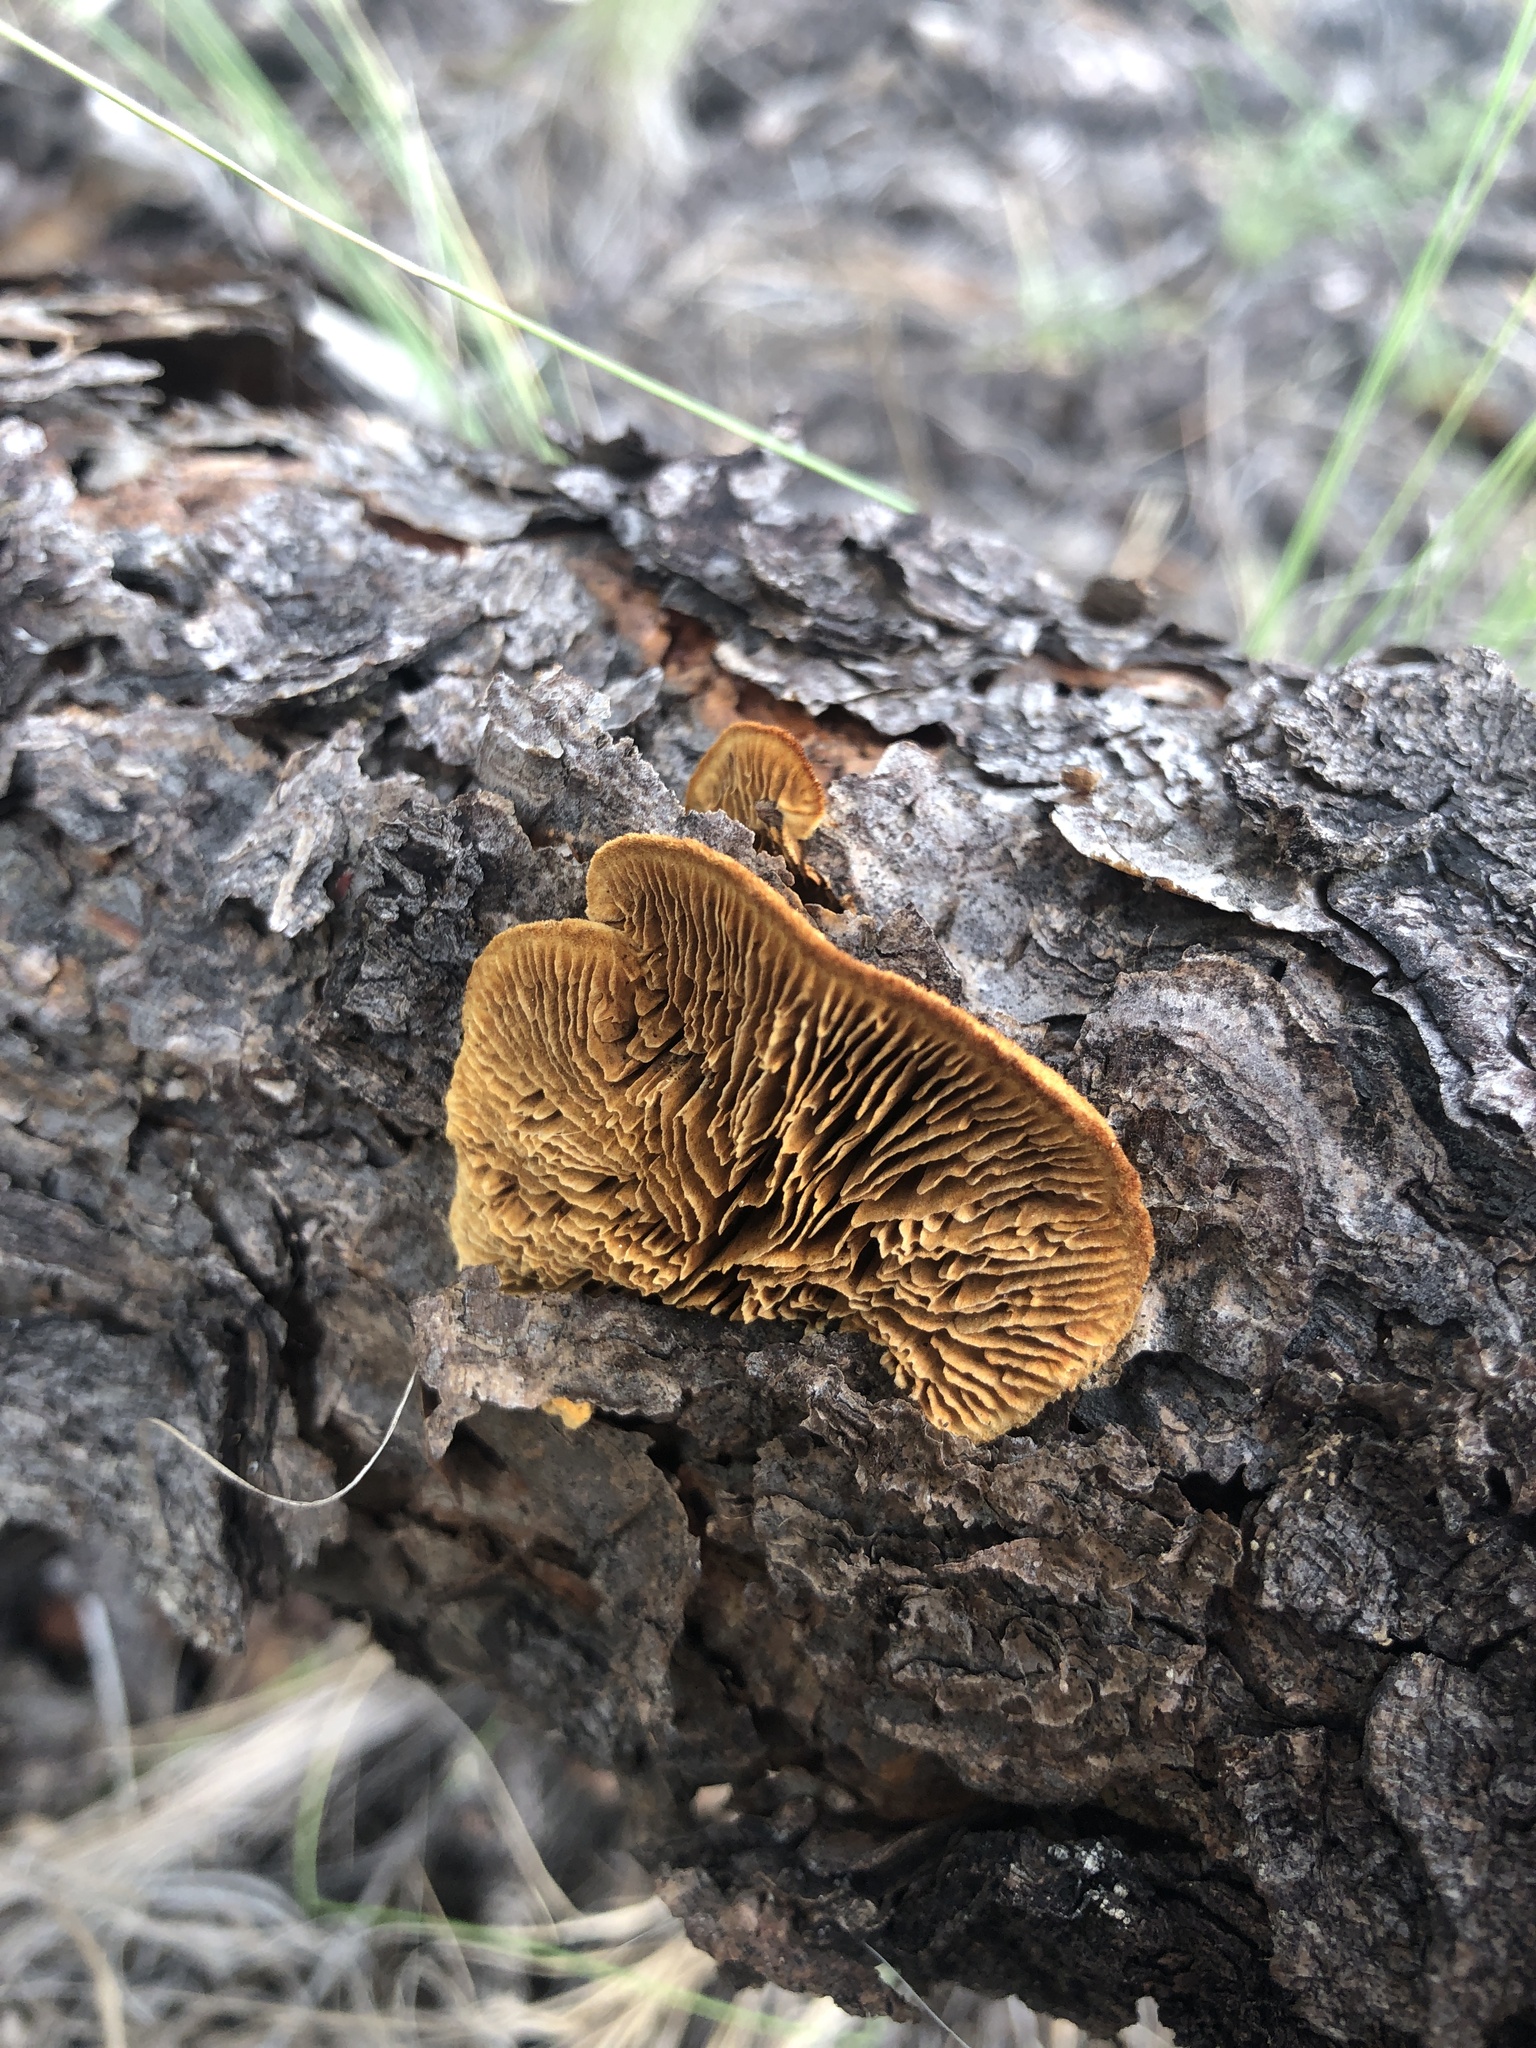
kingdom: Fungi
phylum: Basidiomycota
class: Agaricomycetes
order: Gloeophyllales
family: Gloeophyllaceae
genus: Gloeophyllum
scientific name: Gloeophyllum sepiarium
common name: Conifer mazegill
